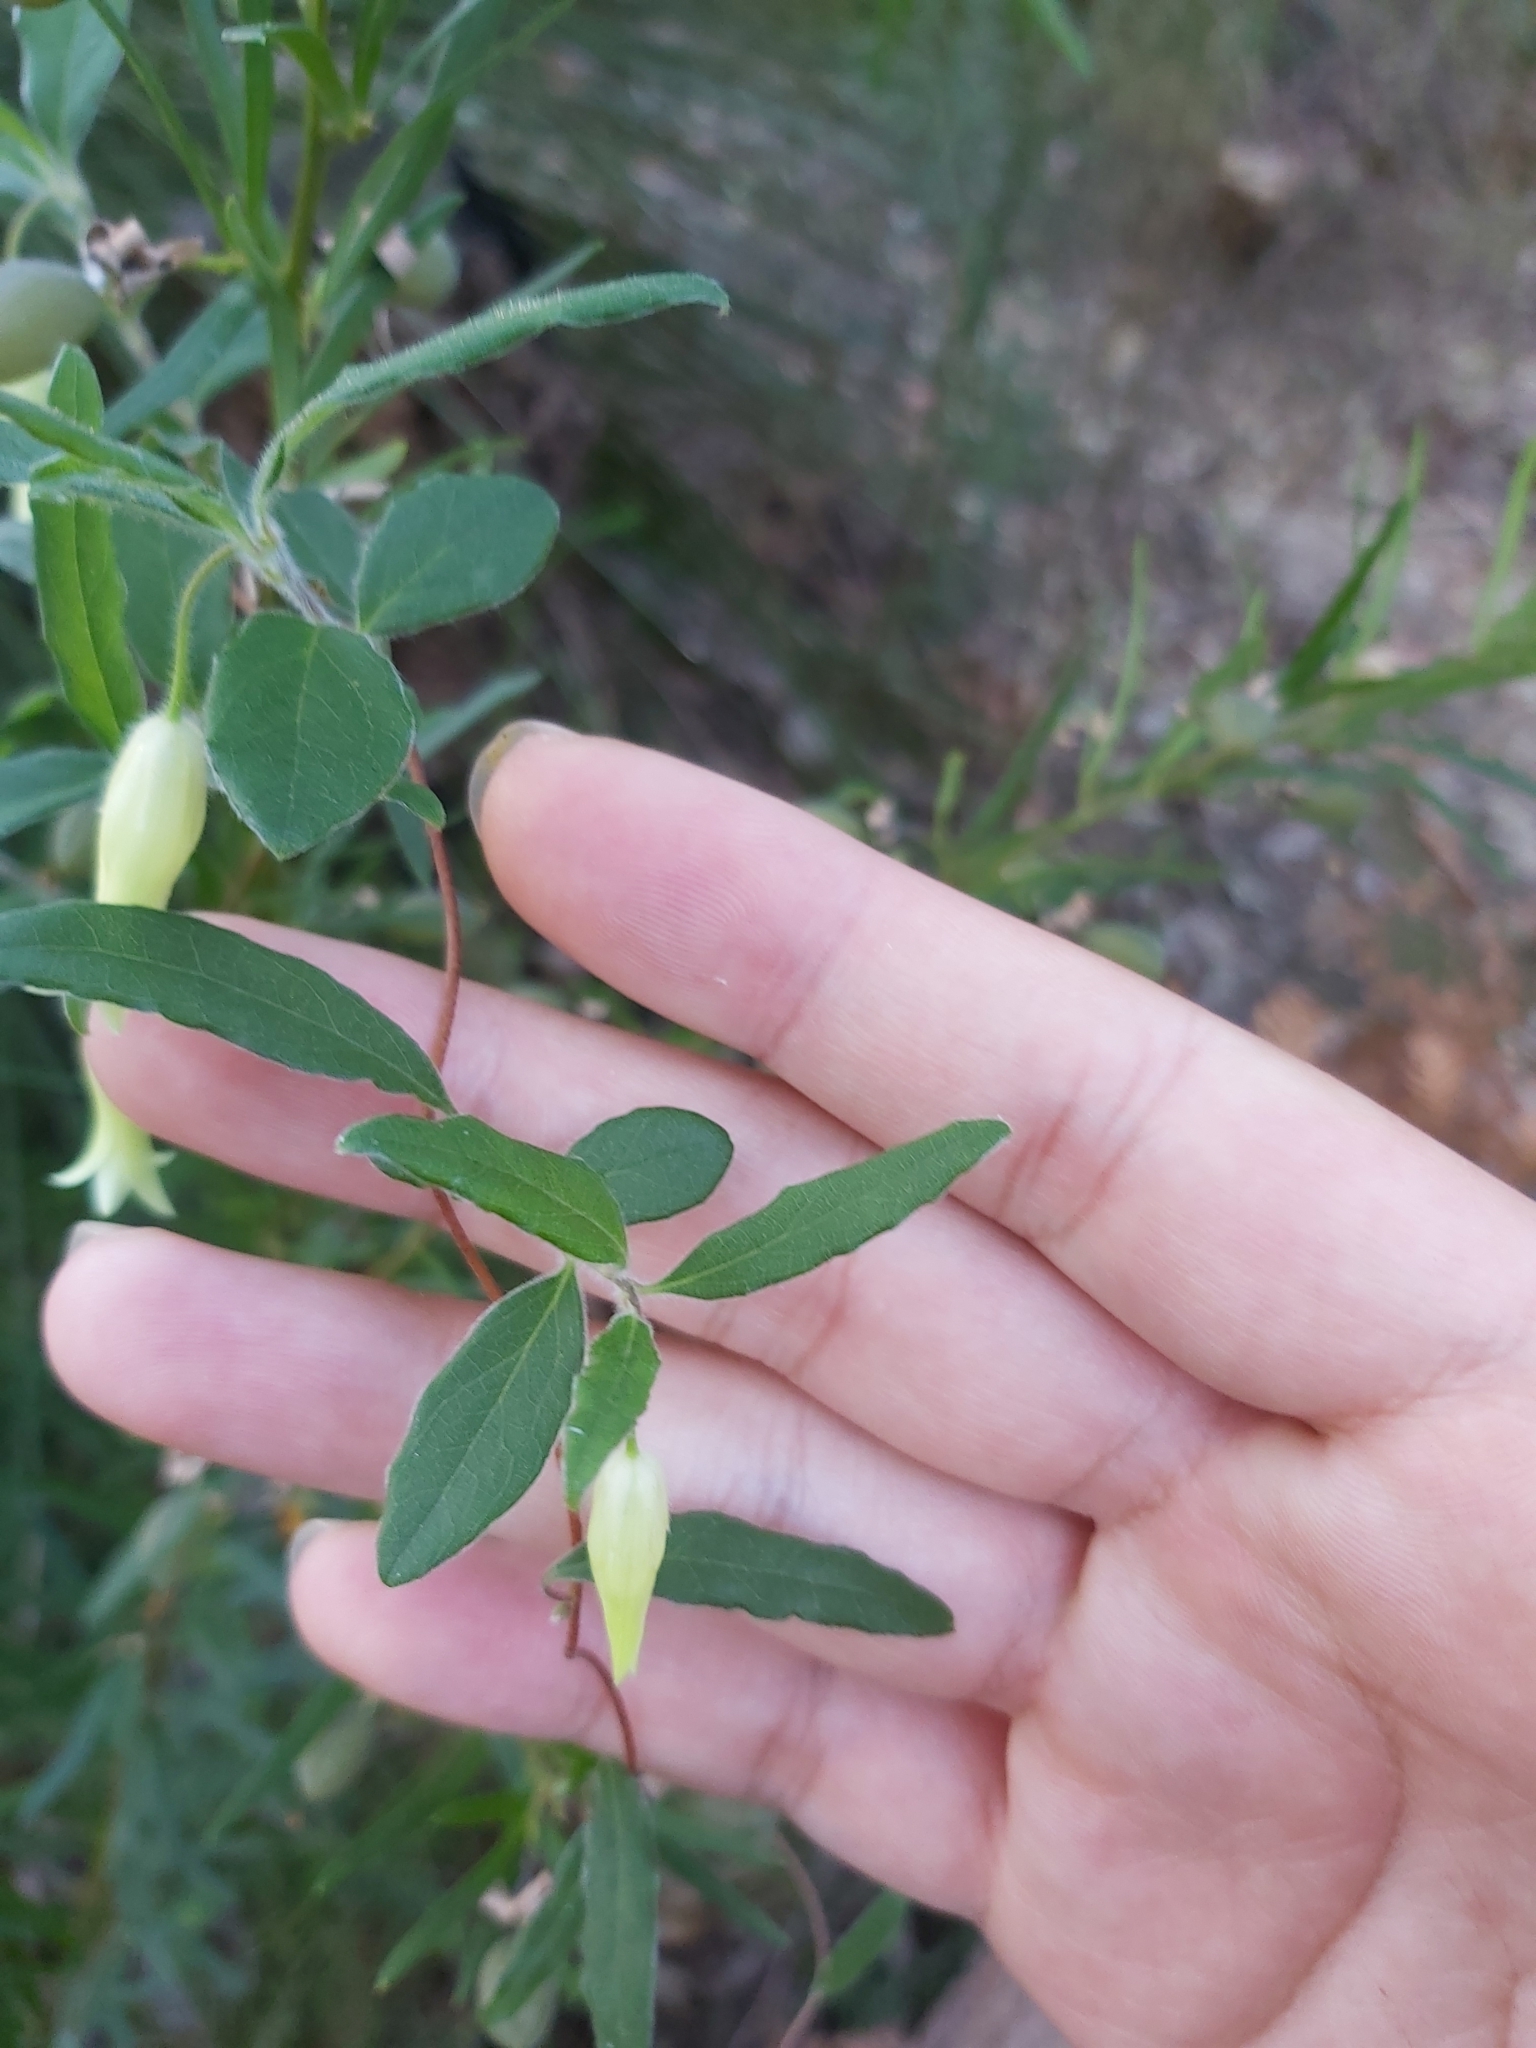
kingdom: Plantae
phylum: Tracheophyta
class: Magnoliopsida
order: Apiales
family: Pittosporaceae
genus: Billardiera
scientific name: Billardiera scandens
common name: Apple-berry
